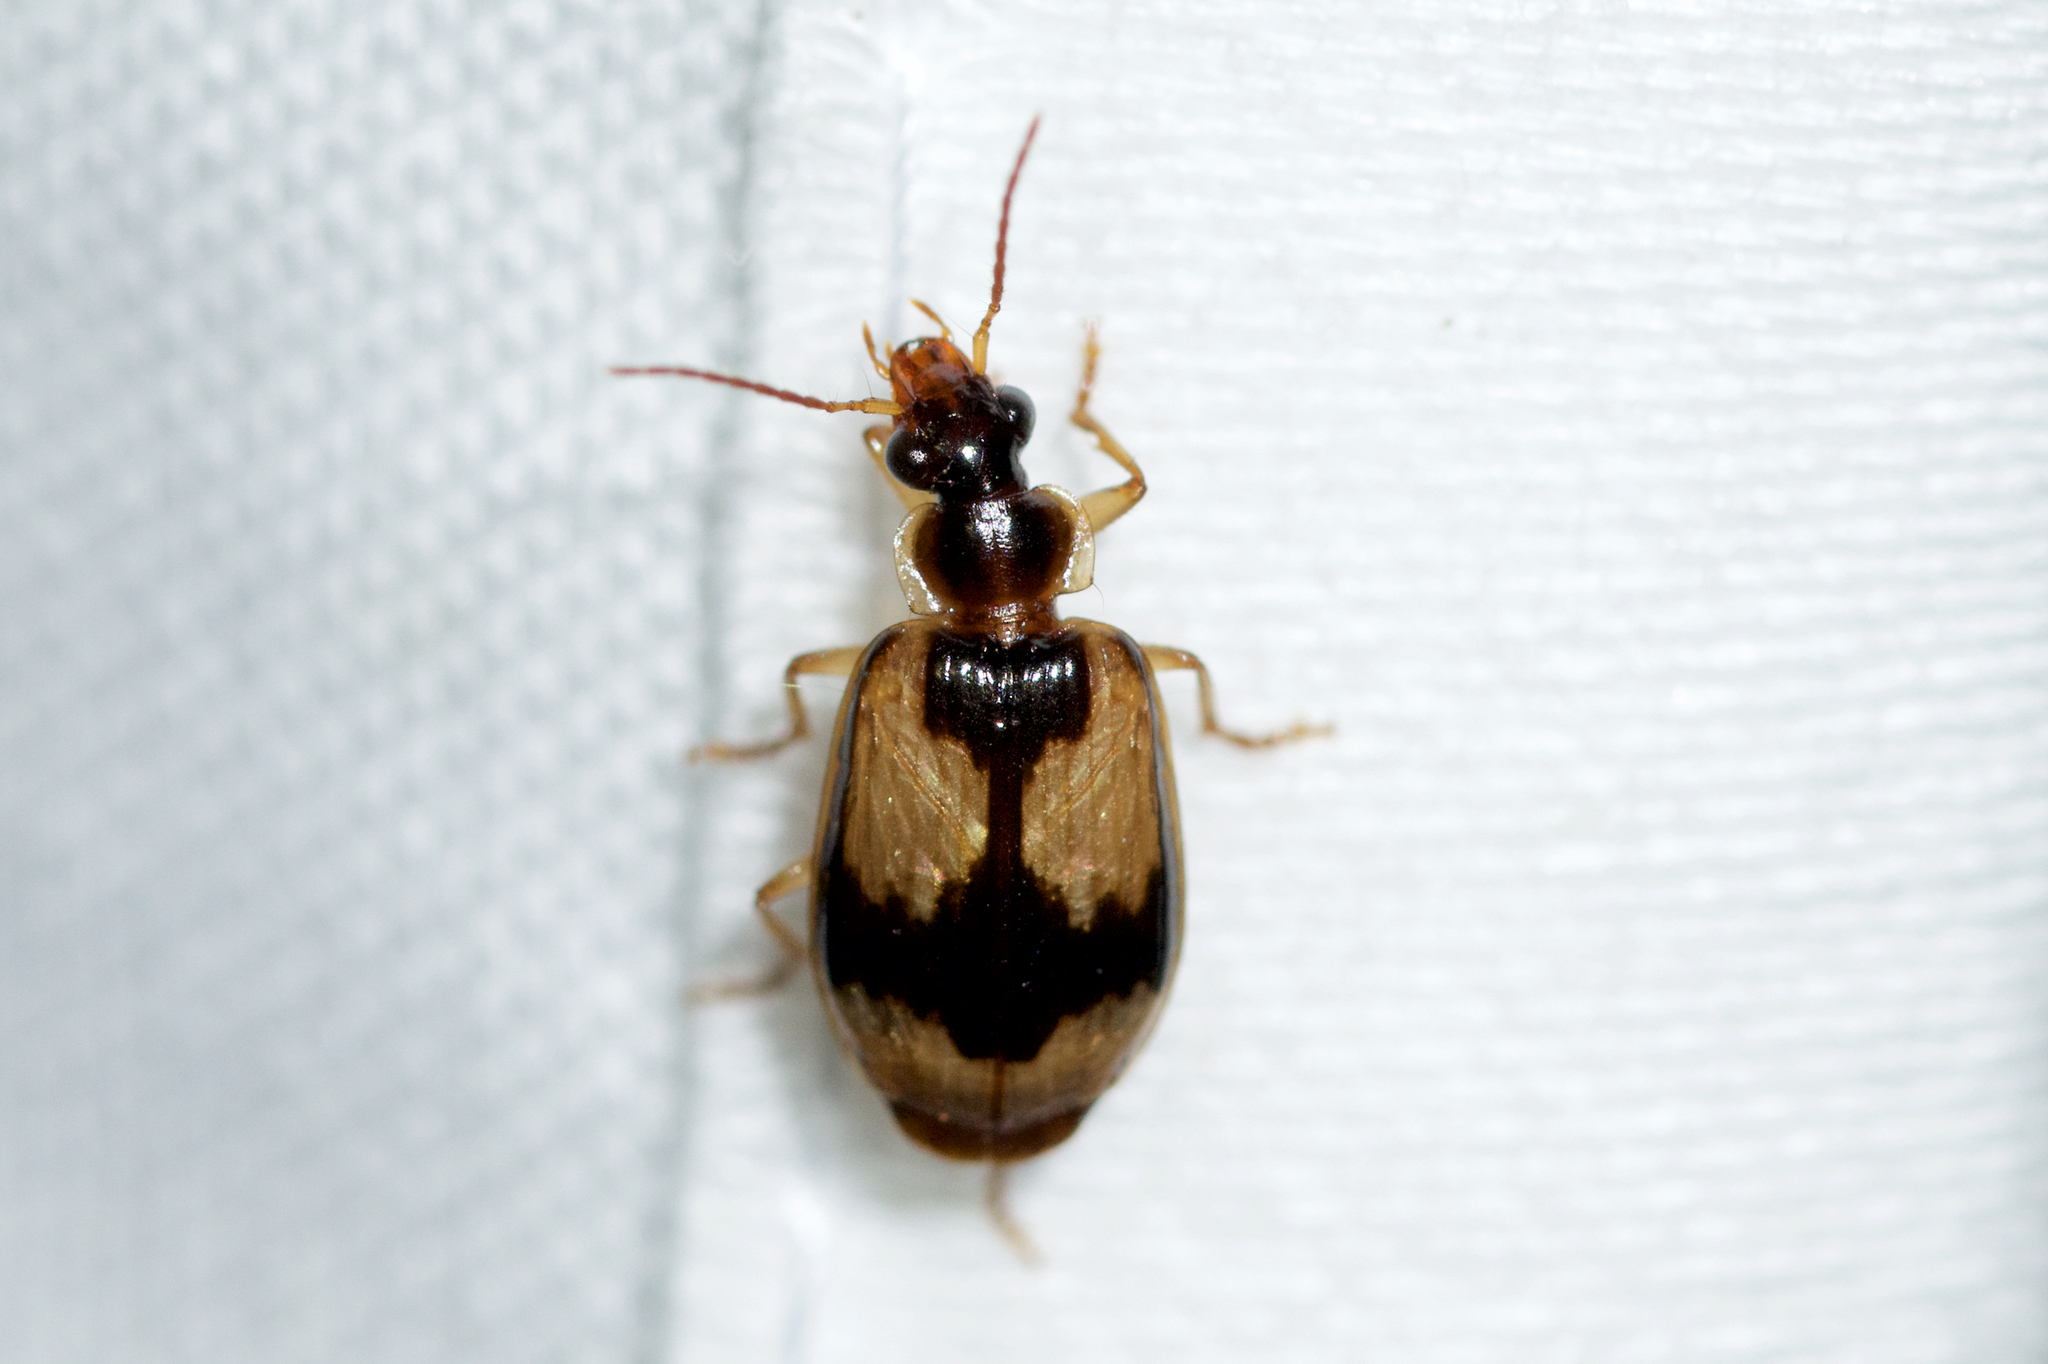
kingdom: Animalia
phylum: Arthropoda
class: Insecta
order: Coleoptera
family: Carabidae
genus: Lebia
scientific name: Lebia fuscata
